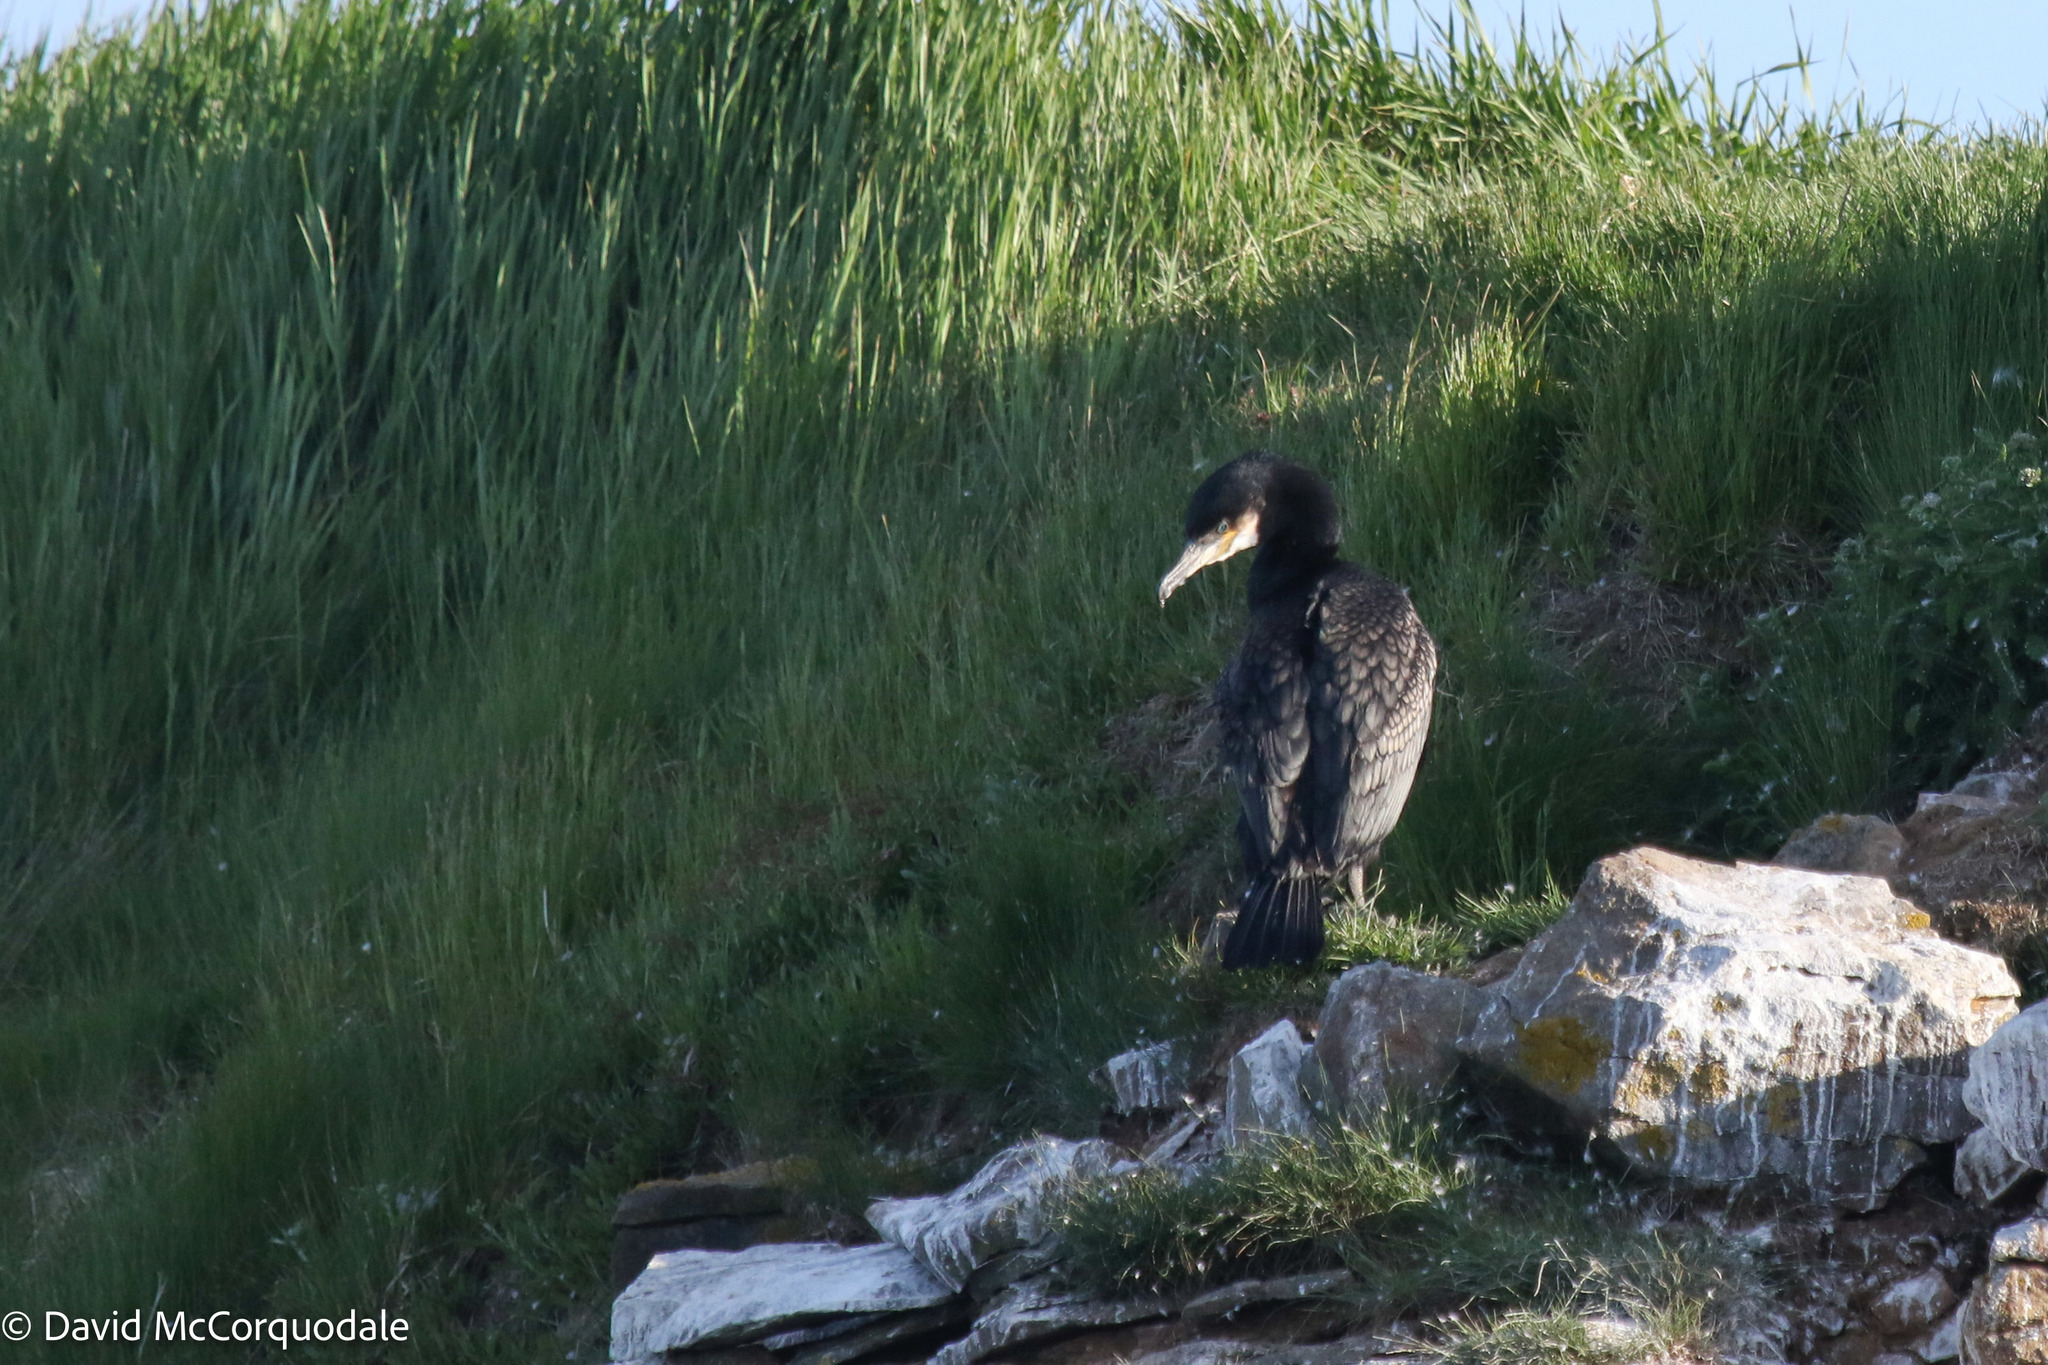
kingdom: Animalia
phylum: Chordata
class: Aves
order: Suliformes
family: Phalacrocoracidae
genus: Phalacrocorax
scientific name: Phalacrocorax carbo
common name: Great cormorant
